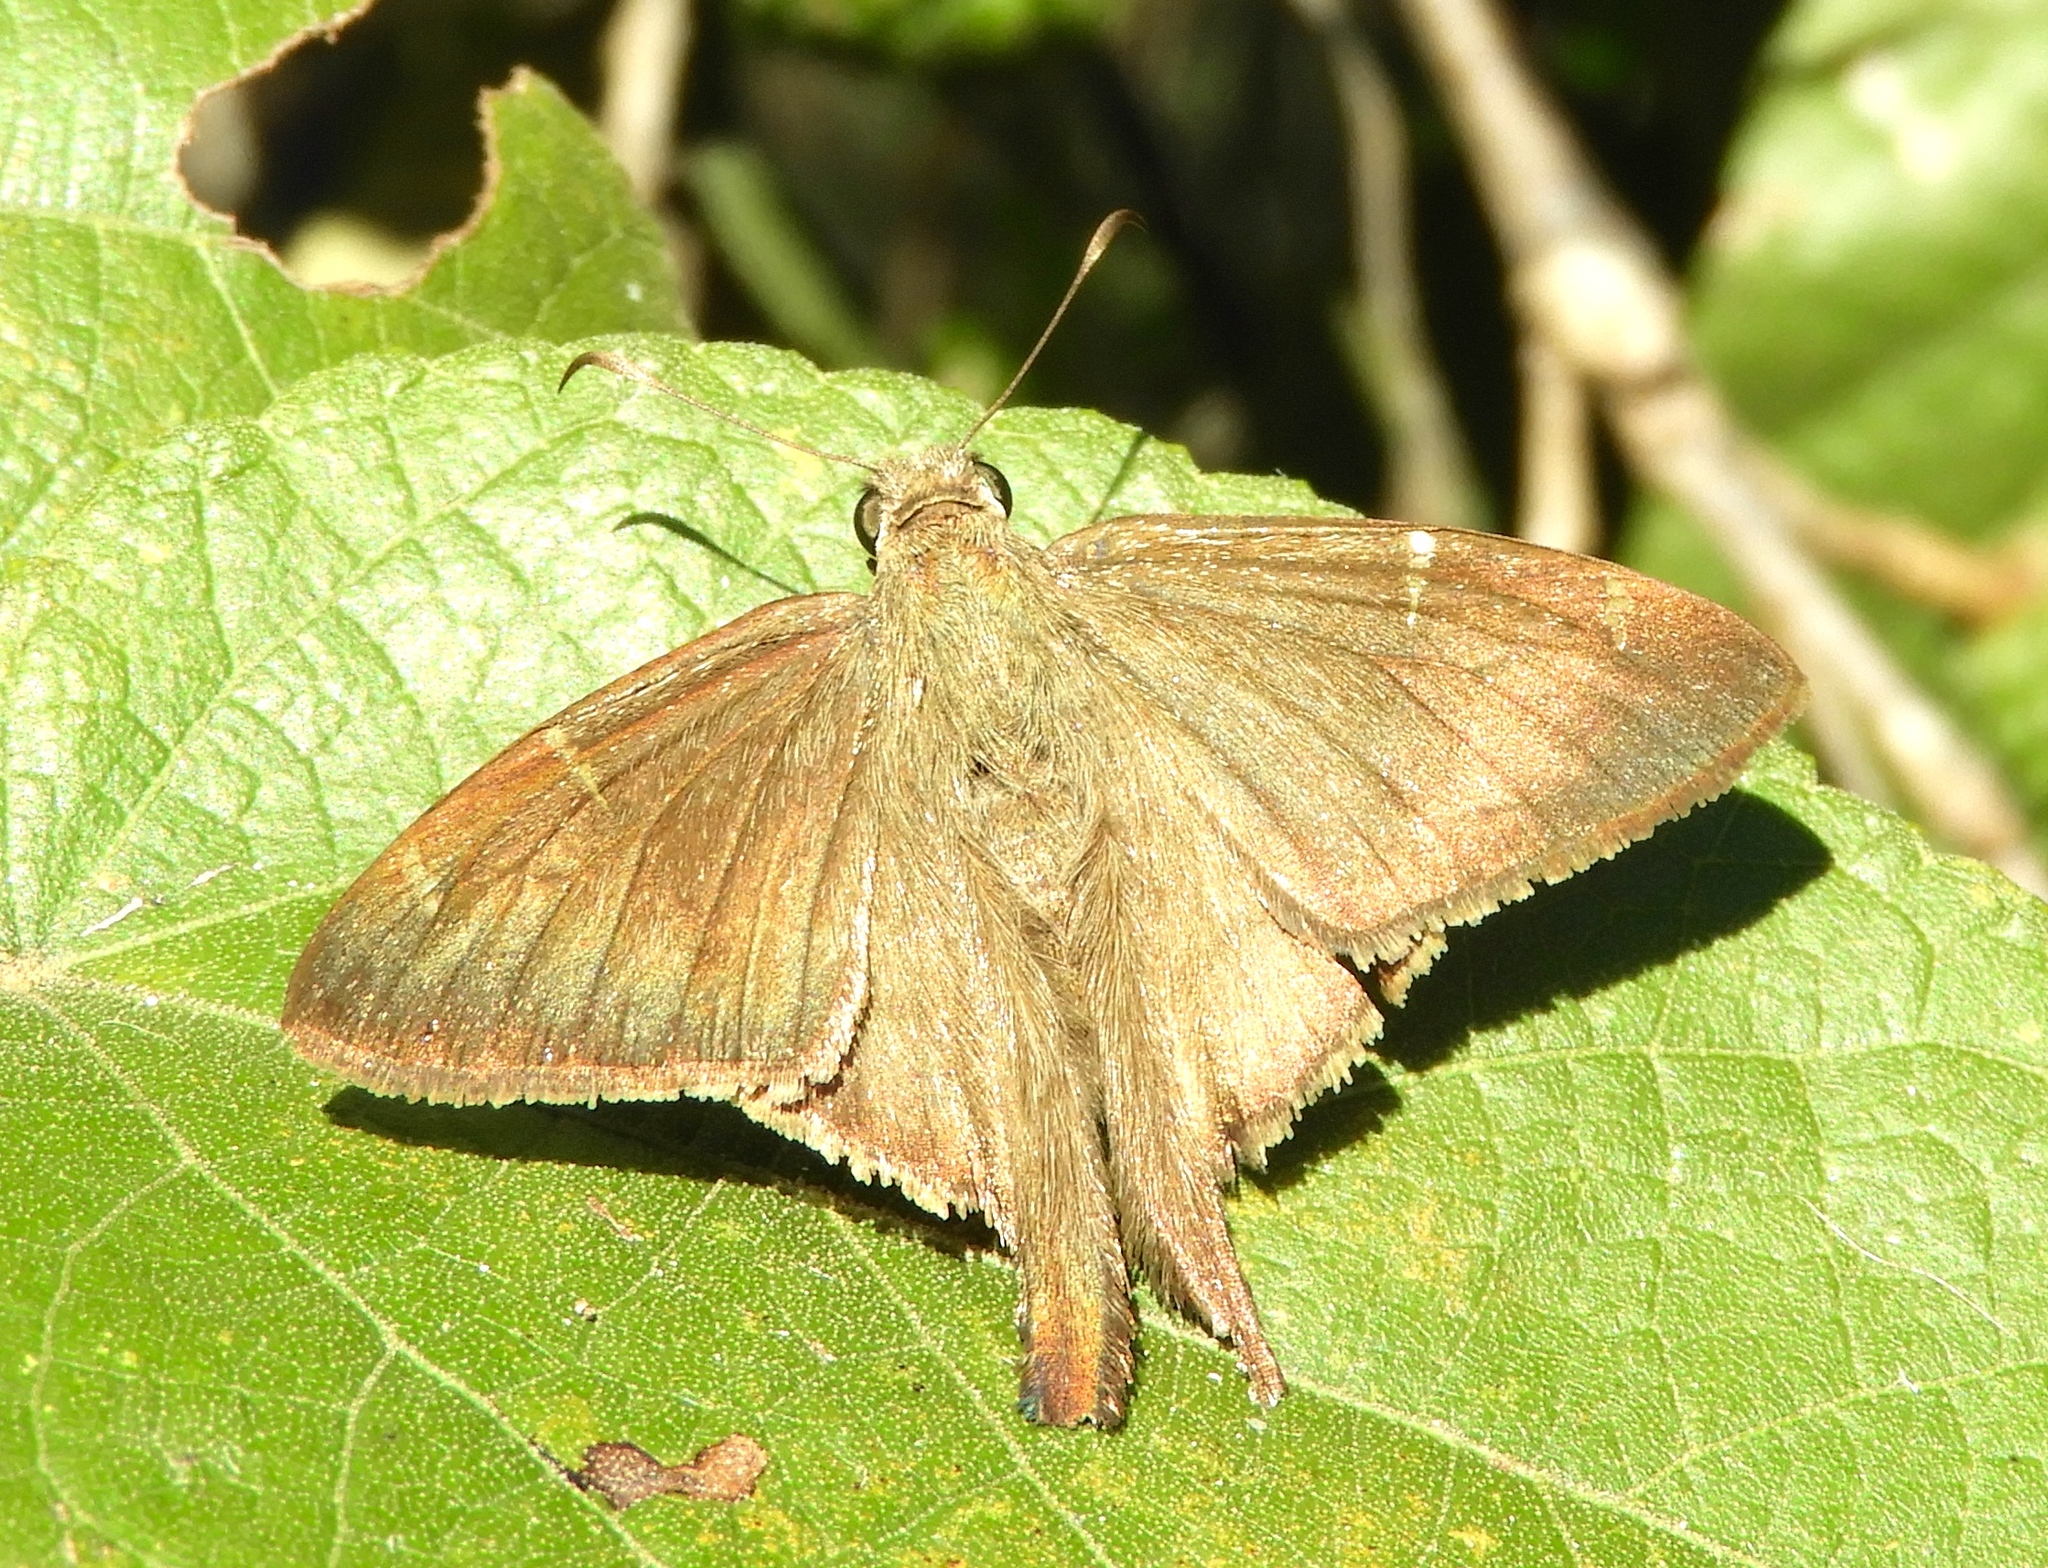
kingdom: Animalia
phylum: Arthropoda
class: Insecta
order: Lepidoptera
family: Hesperiidae
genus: Urbanus
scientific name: Urbanus simplicius
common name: Plain longtail
